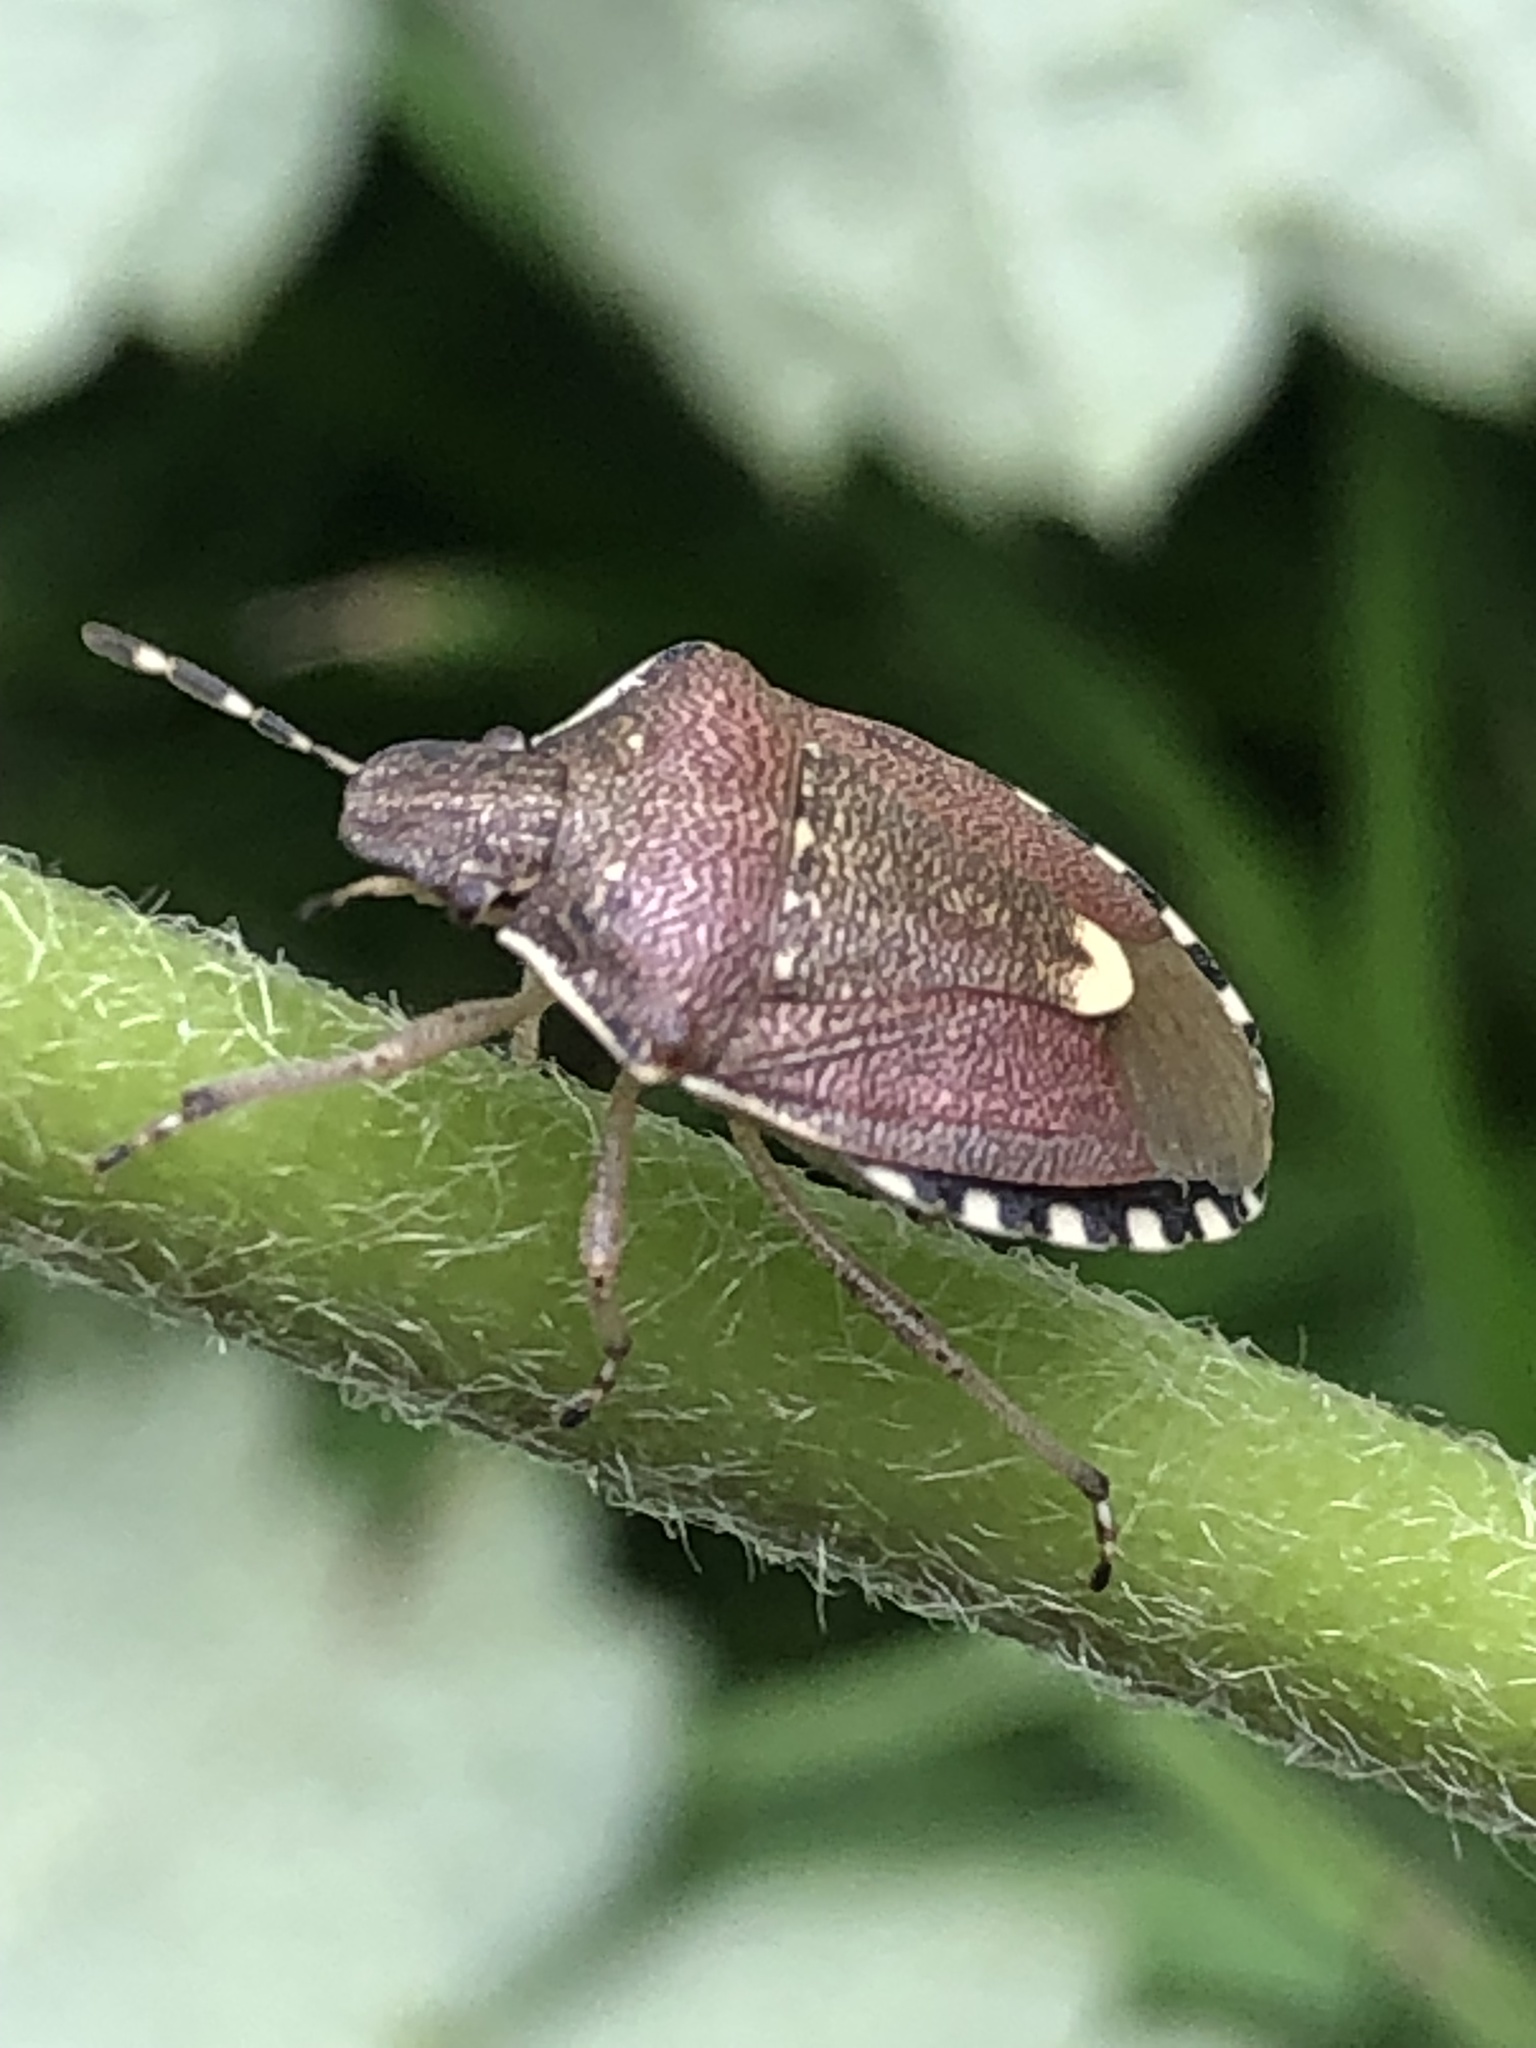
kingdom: Animalia
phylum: Arthropoda
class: Insecta
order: Hemiptera
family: Pentatomidae
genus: Holcostethus
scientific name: Holcostethus sphacelatus
